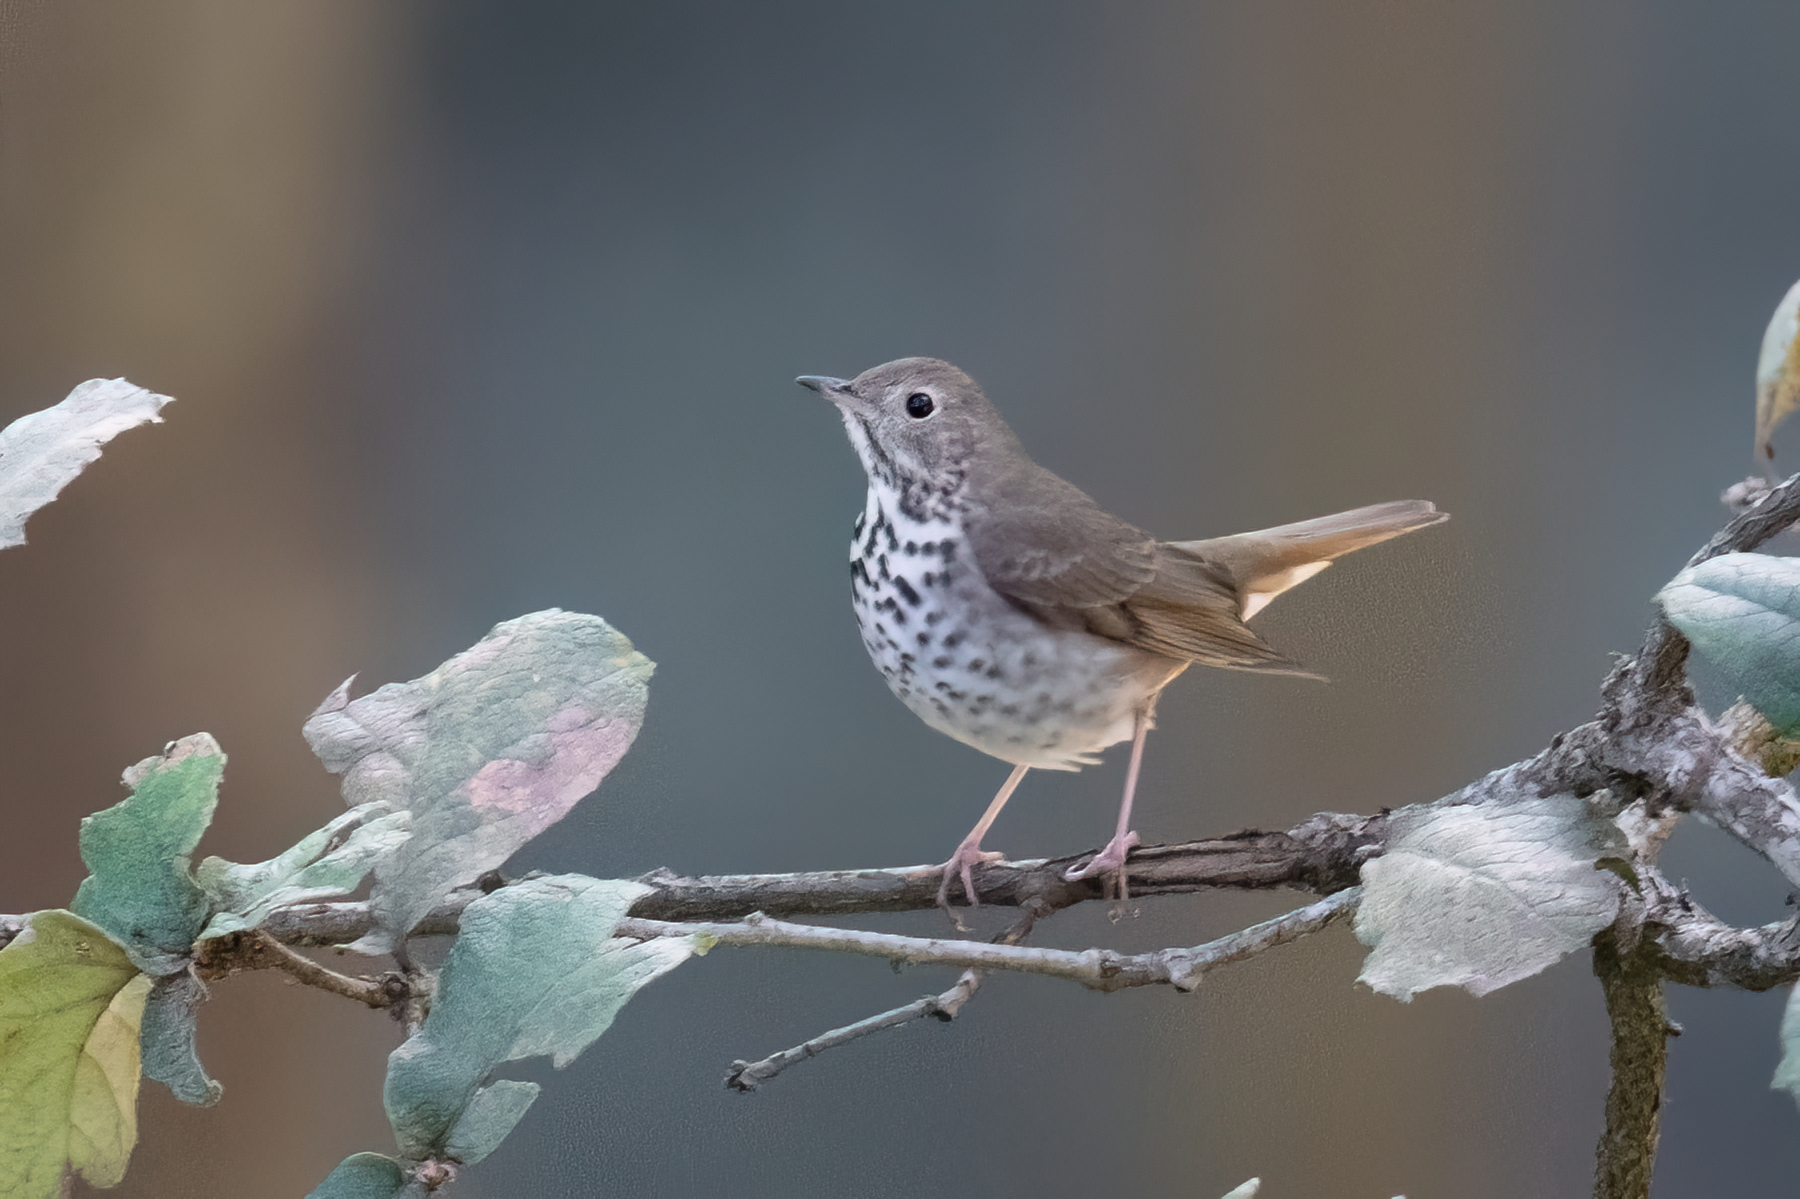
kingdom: Animalia
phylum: Chordata
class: Aves
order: Passeriformes
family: Turdidae
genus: Catharus
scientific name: Catharus guttatus
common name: Hermit thrush
